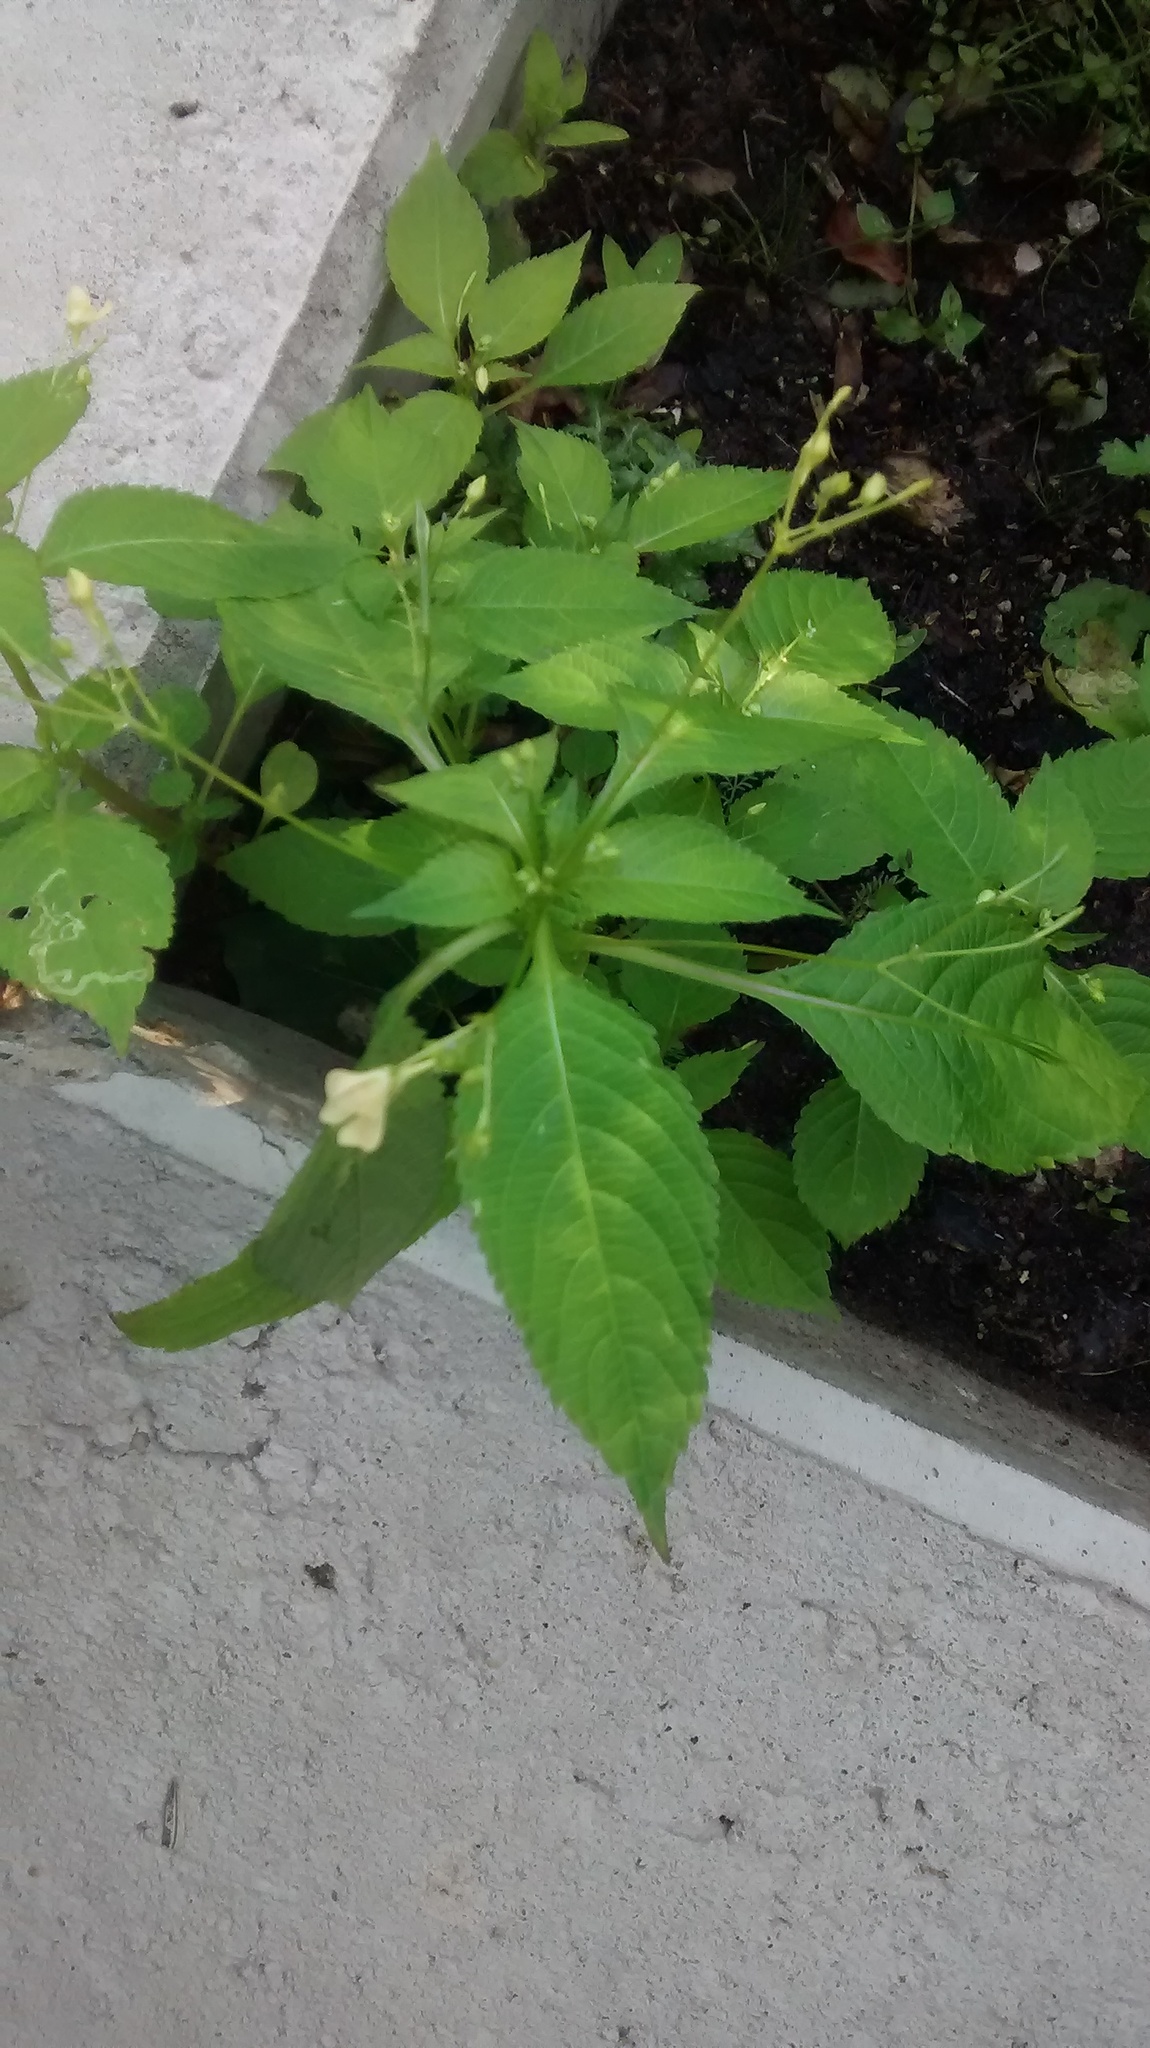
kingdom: Plantae
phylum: Tracheophyta
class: Magnoliopsida
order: Ericales
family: Balsaminaceae
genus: Impatiens
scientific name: Impatiens parviflora
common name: Small balsam
